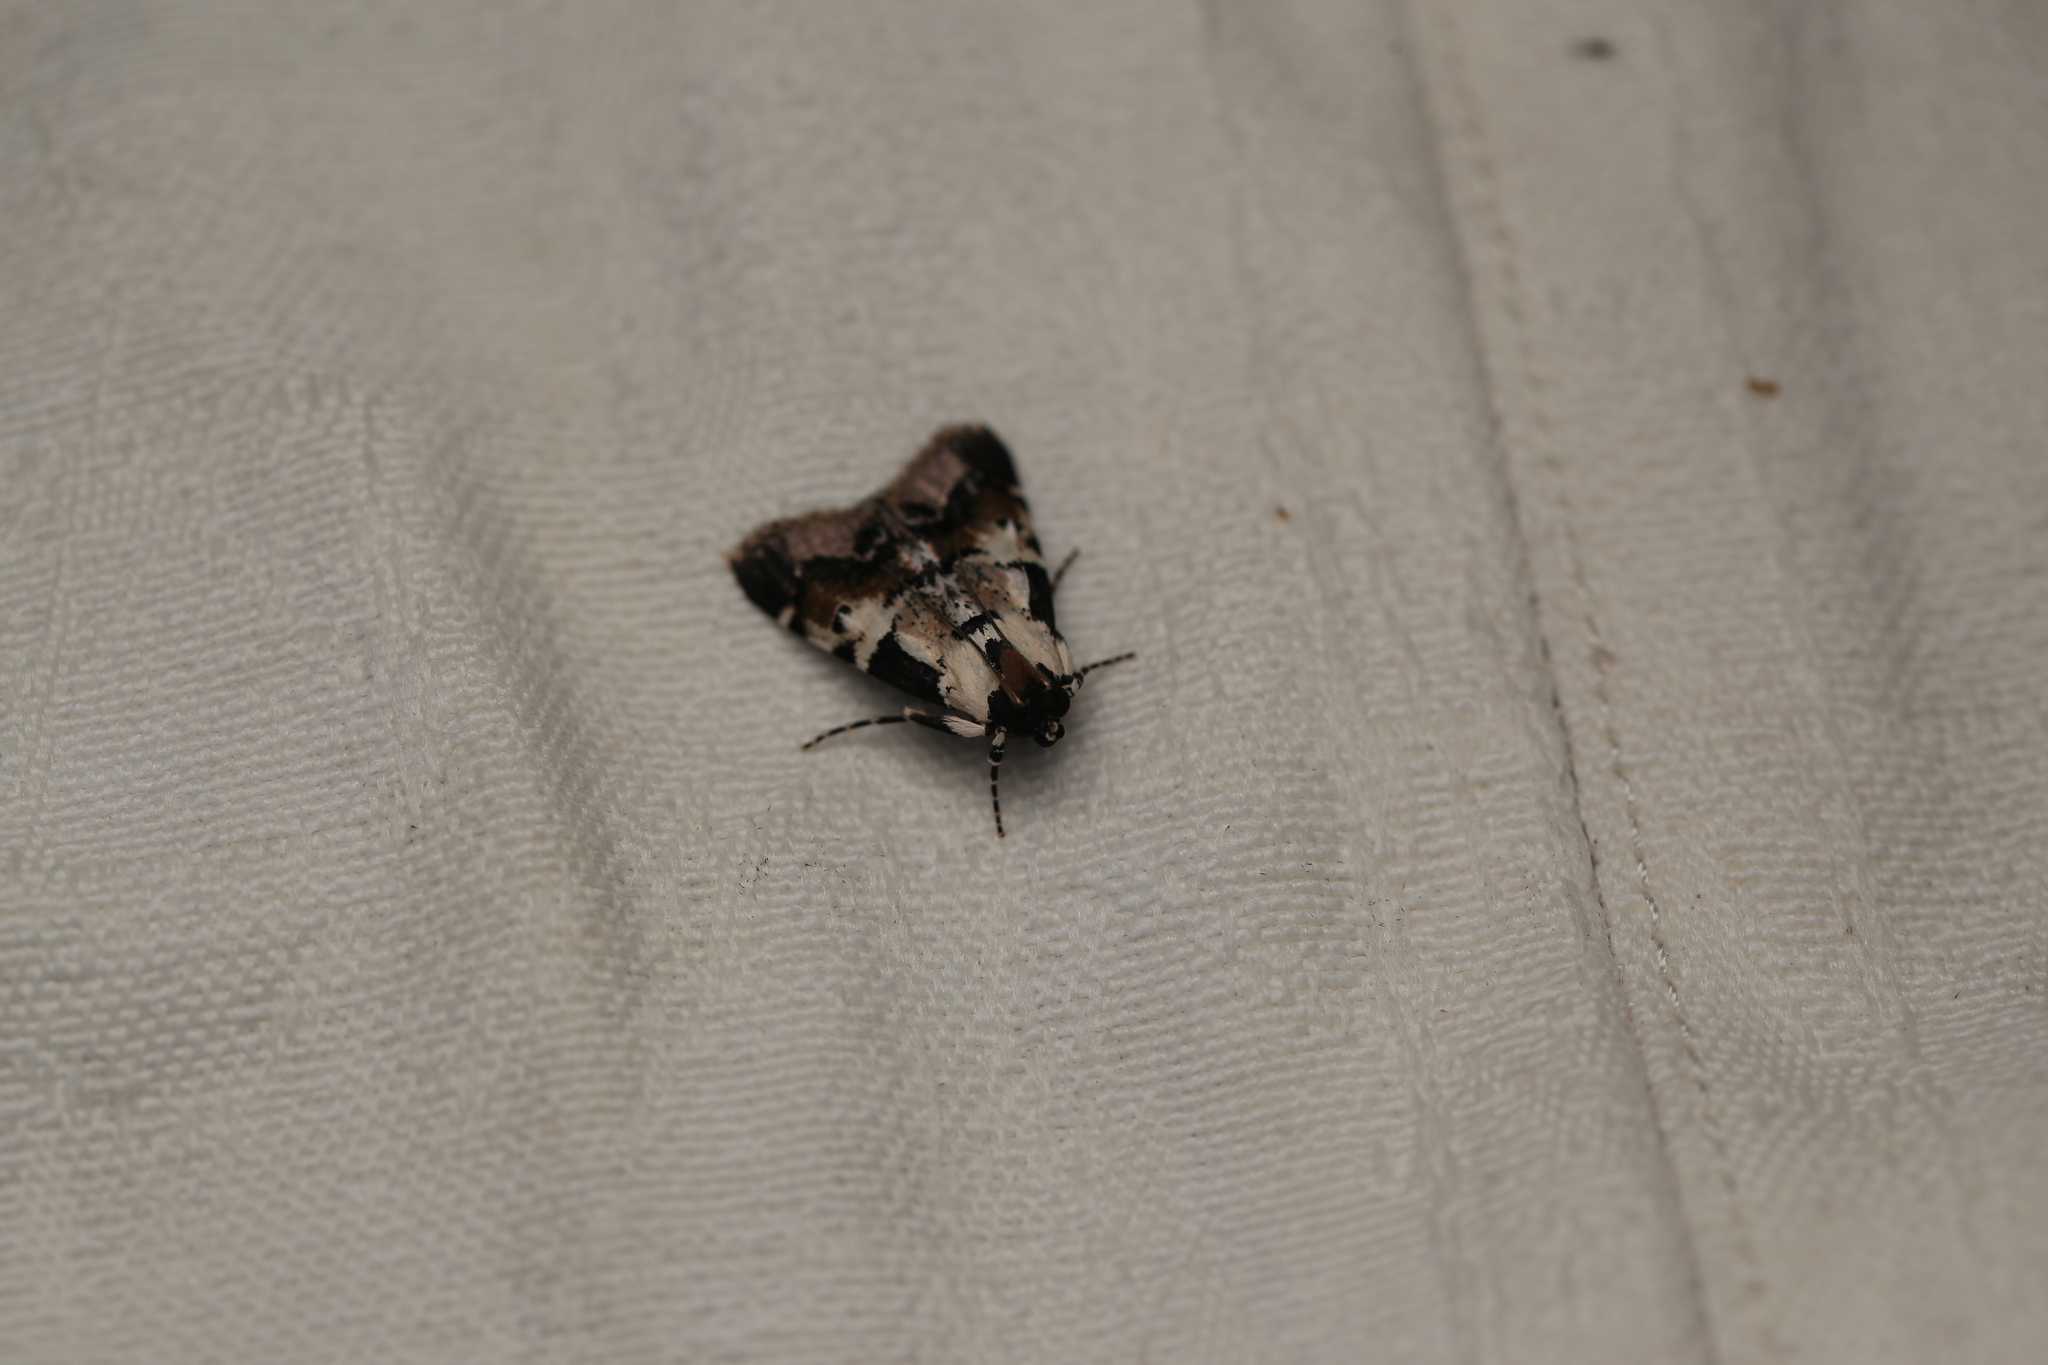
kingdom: Animalia
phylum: Arthropoda
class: Insecta
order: Lepidoptera
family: Pyralidae
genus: Orthaga
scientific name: Orthaga seminivea
